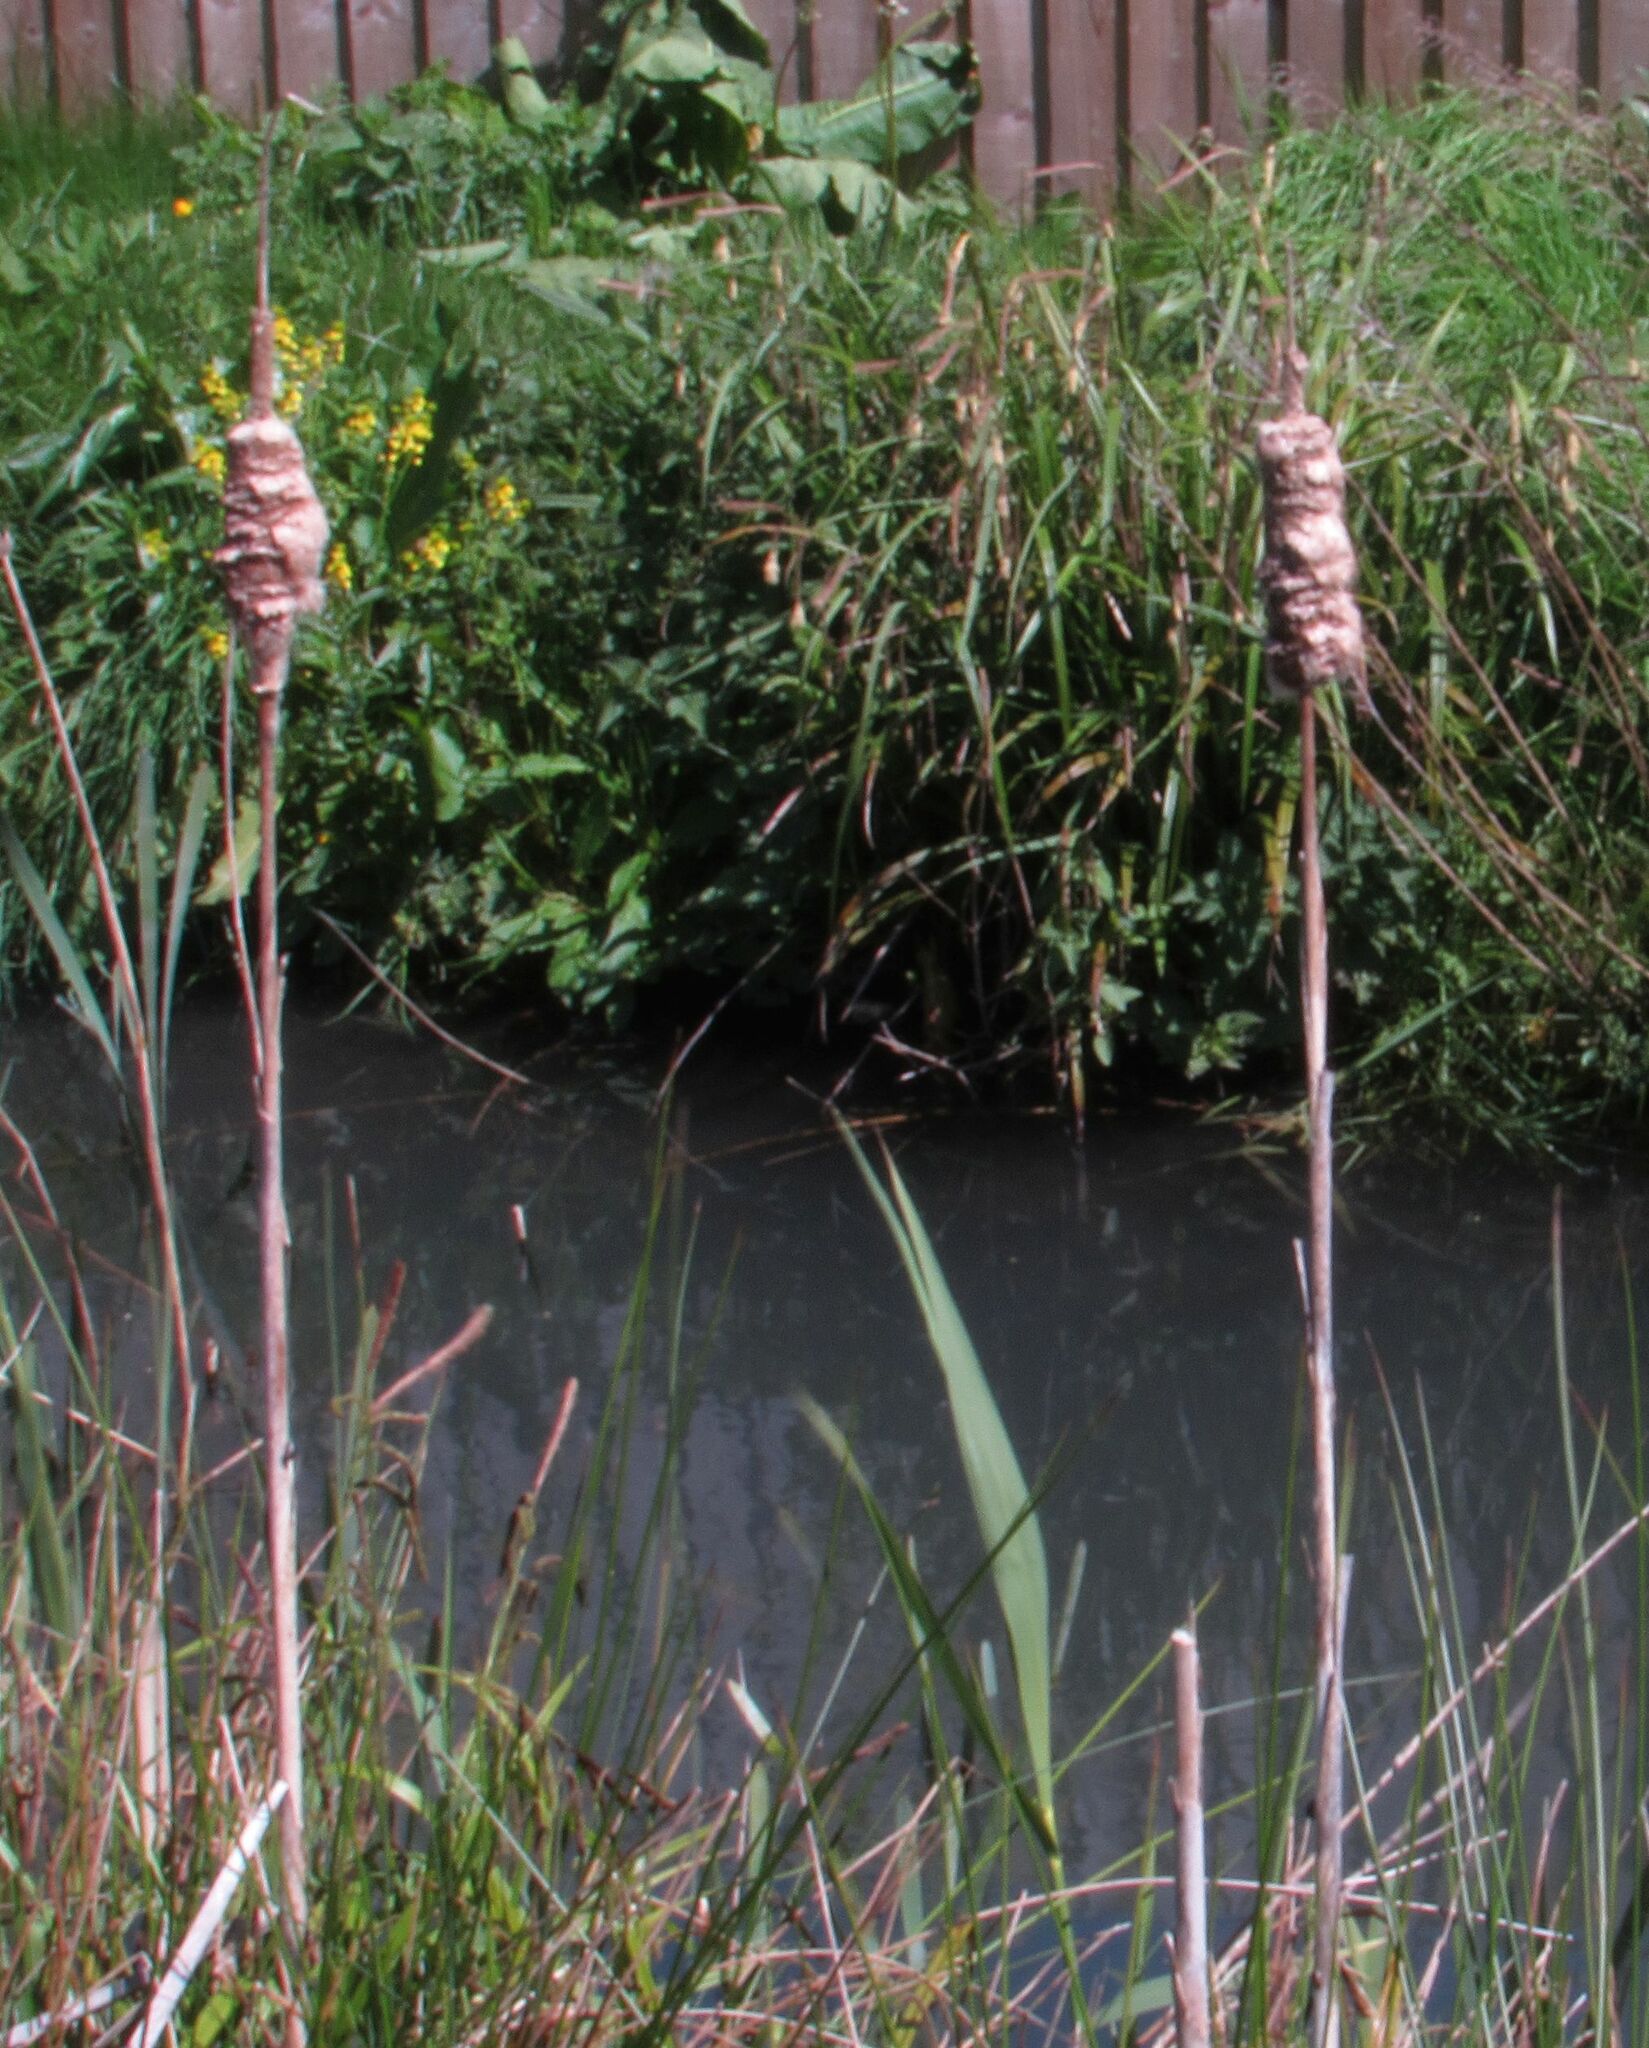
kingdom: Plantae
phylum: Tracheophyta
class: Liliopsida
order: Poales
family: Typhaceae
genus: Typha
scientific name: Typha latifolia
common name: Broadleaf cattail
